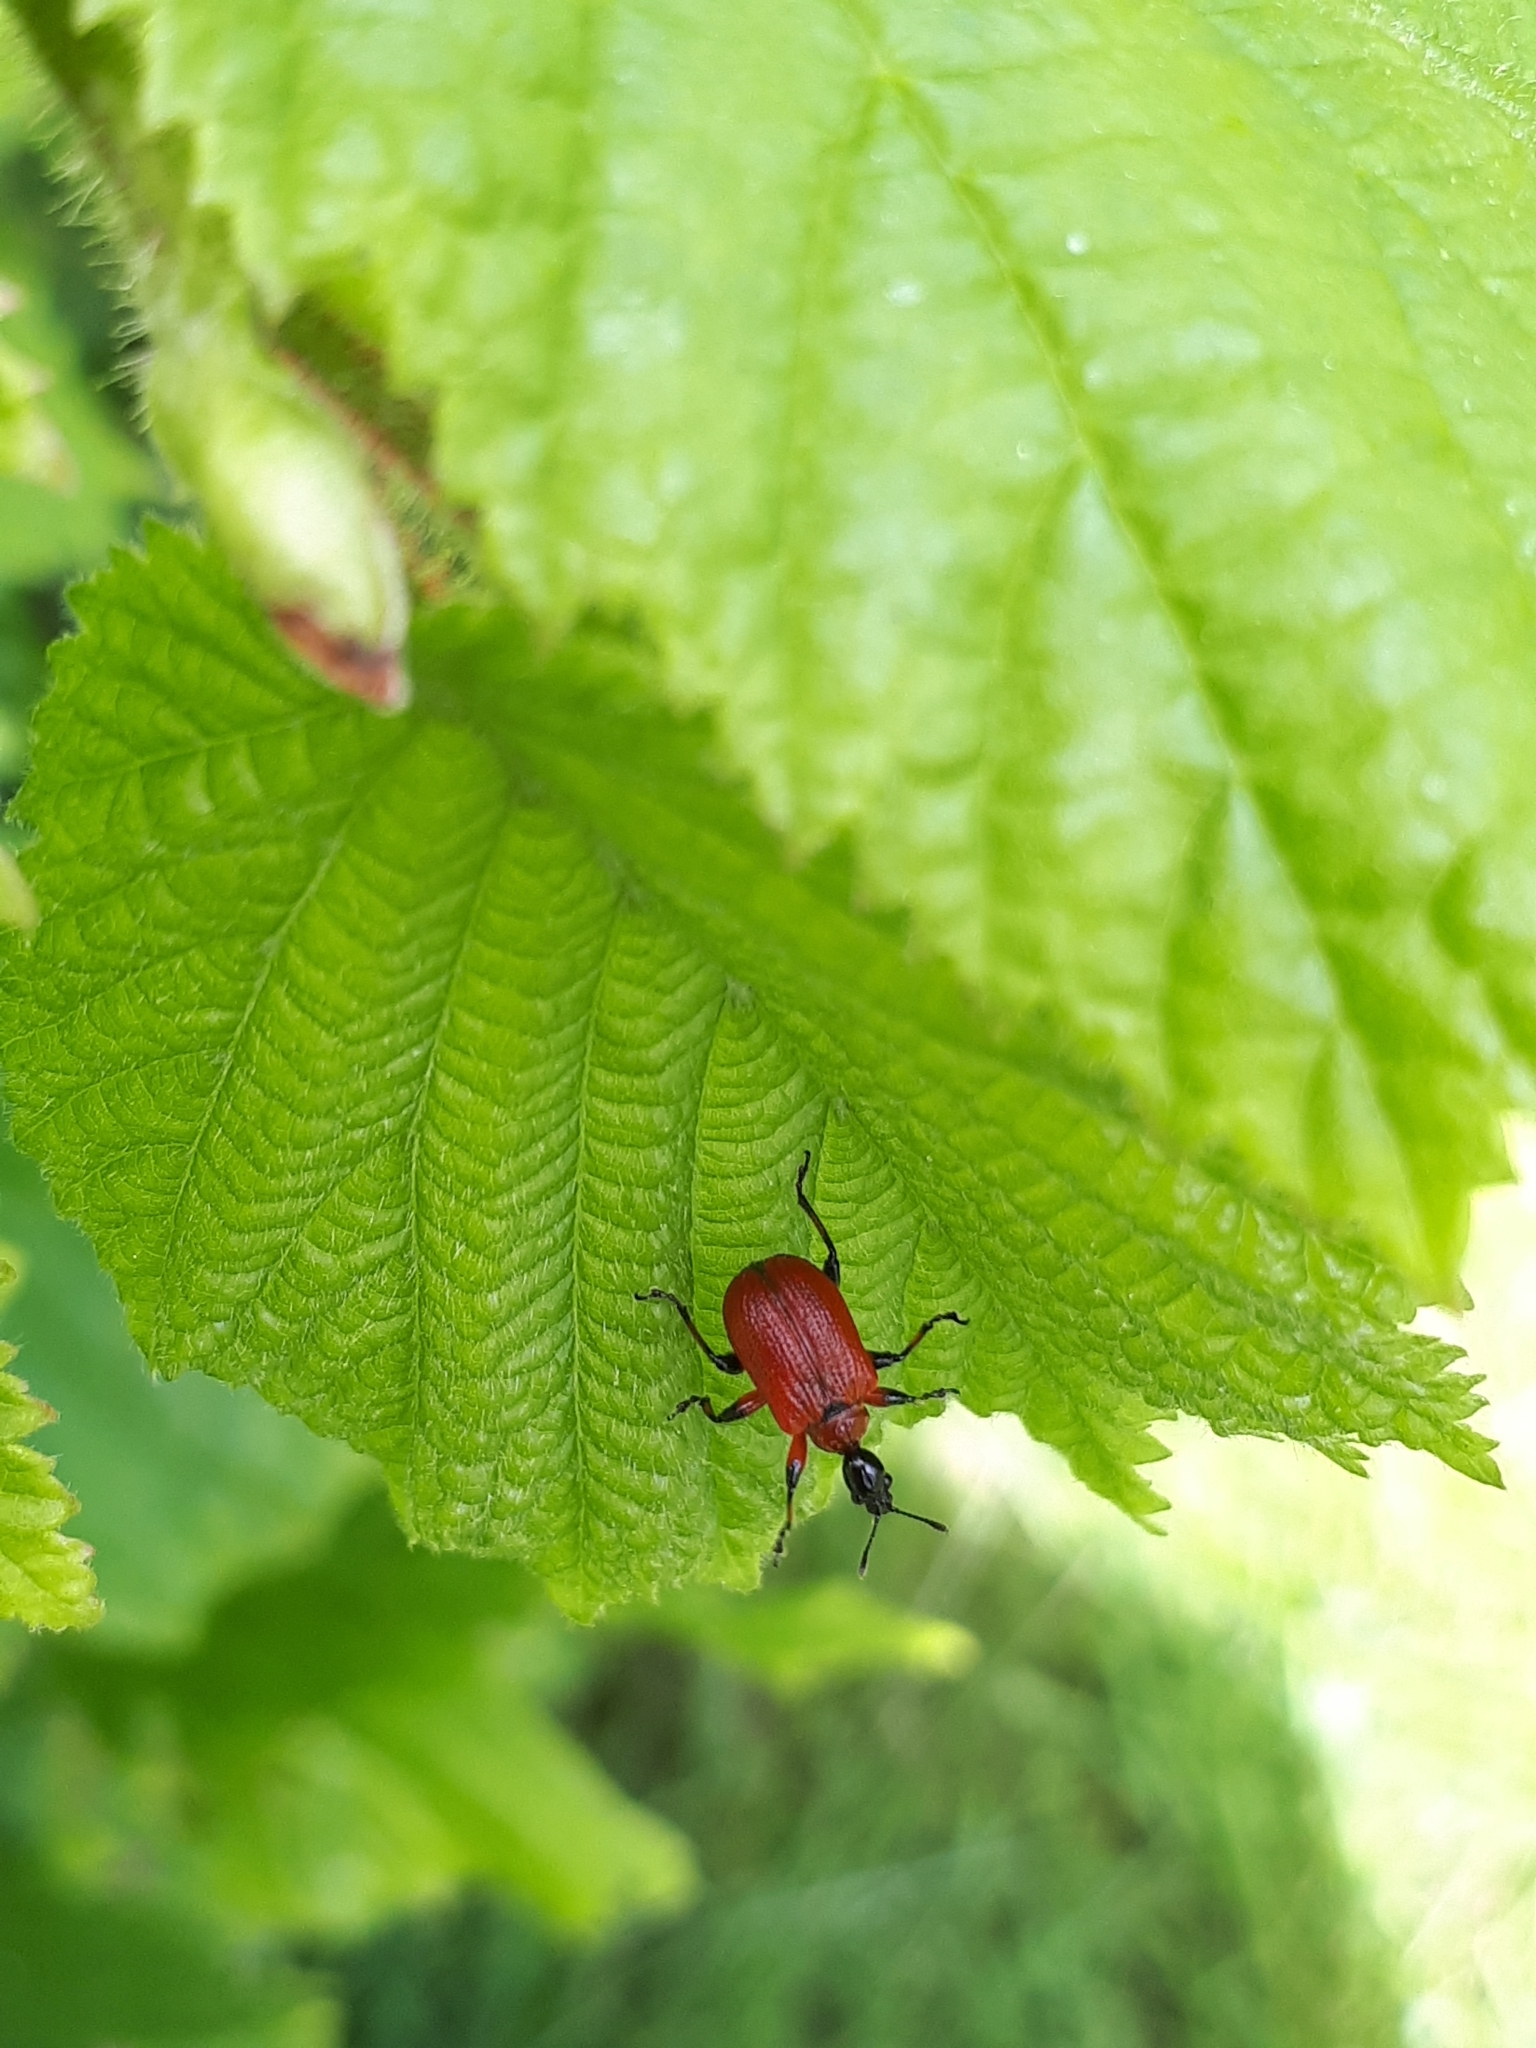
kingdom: Animalia
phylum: Arthropoda
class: Insecta
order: Coleoptera
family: Attelabidae
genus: Apoderus
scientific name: Apoderus coryli
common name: Hazel leaf roller
